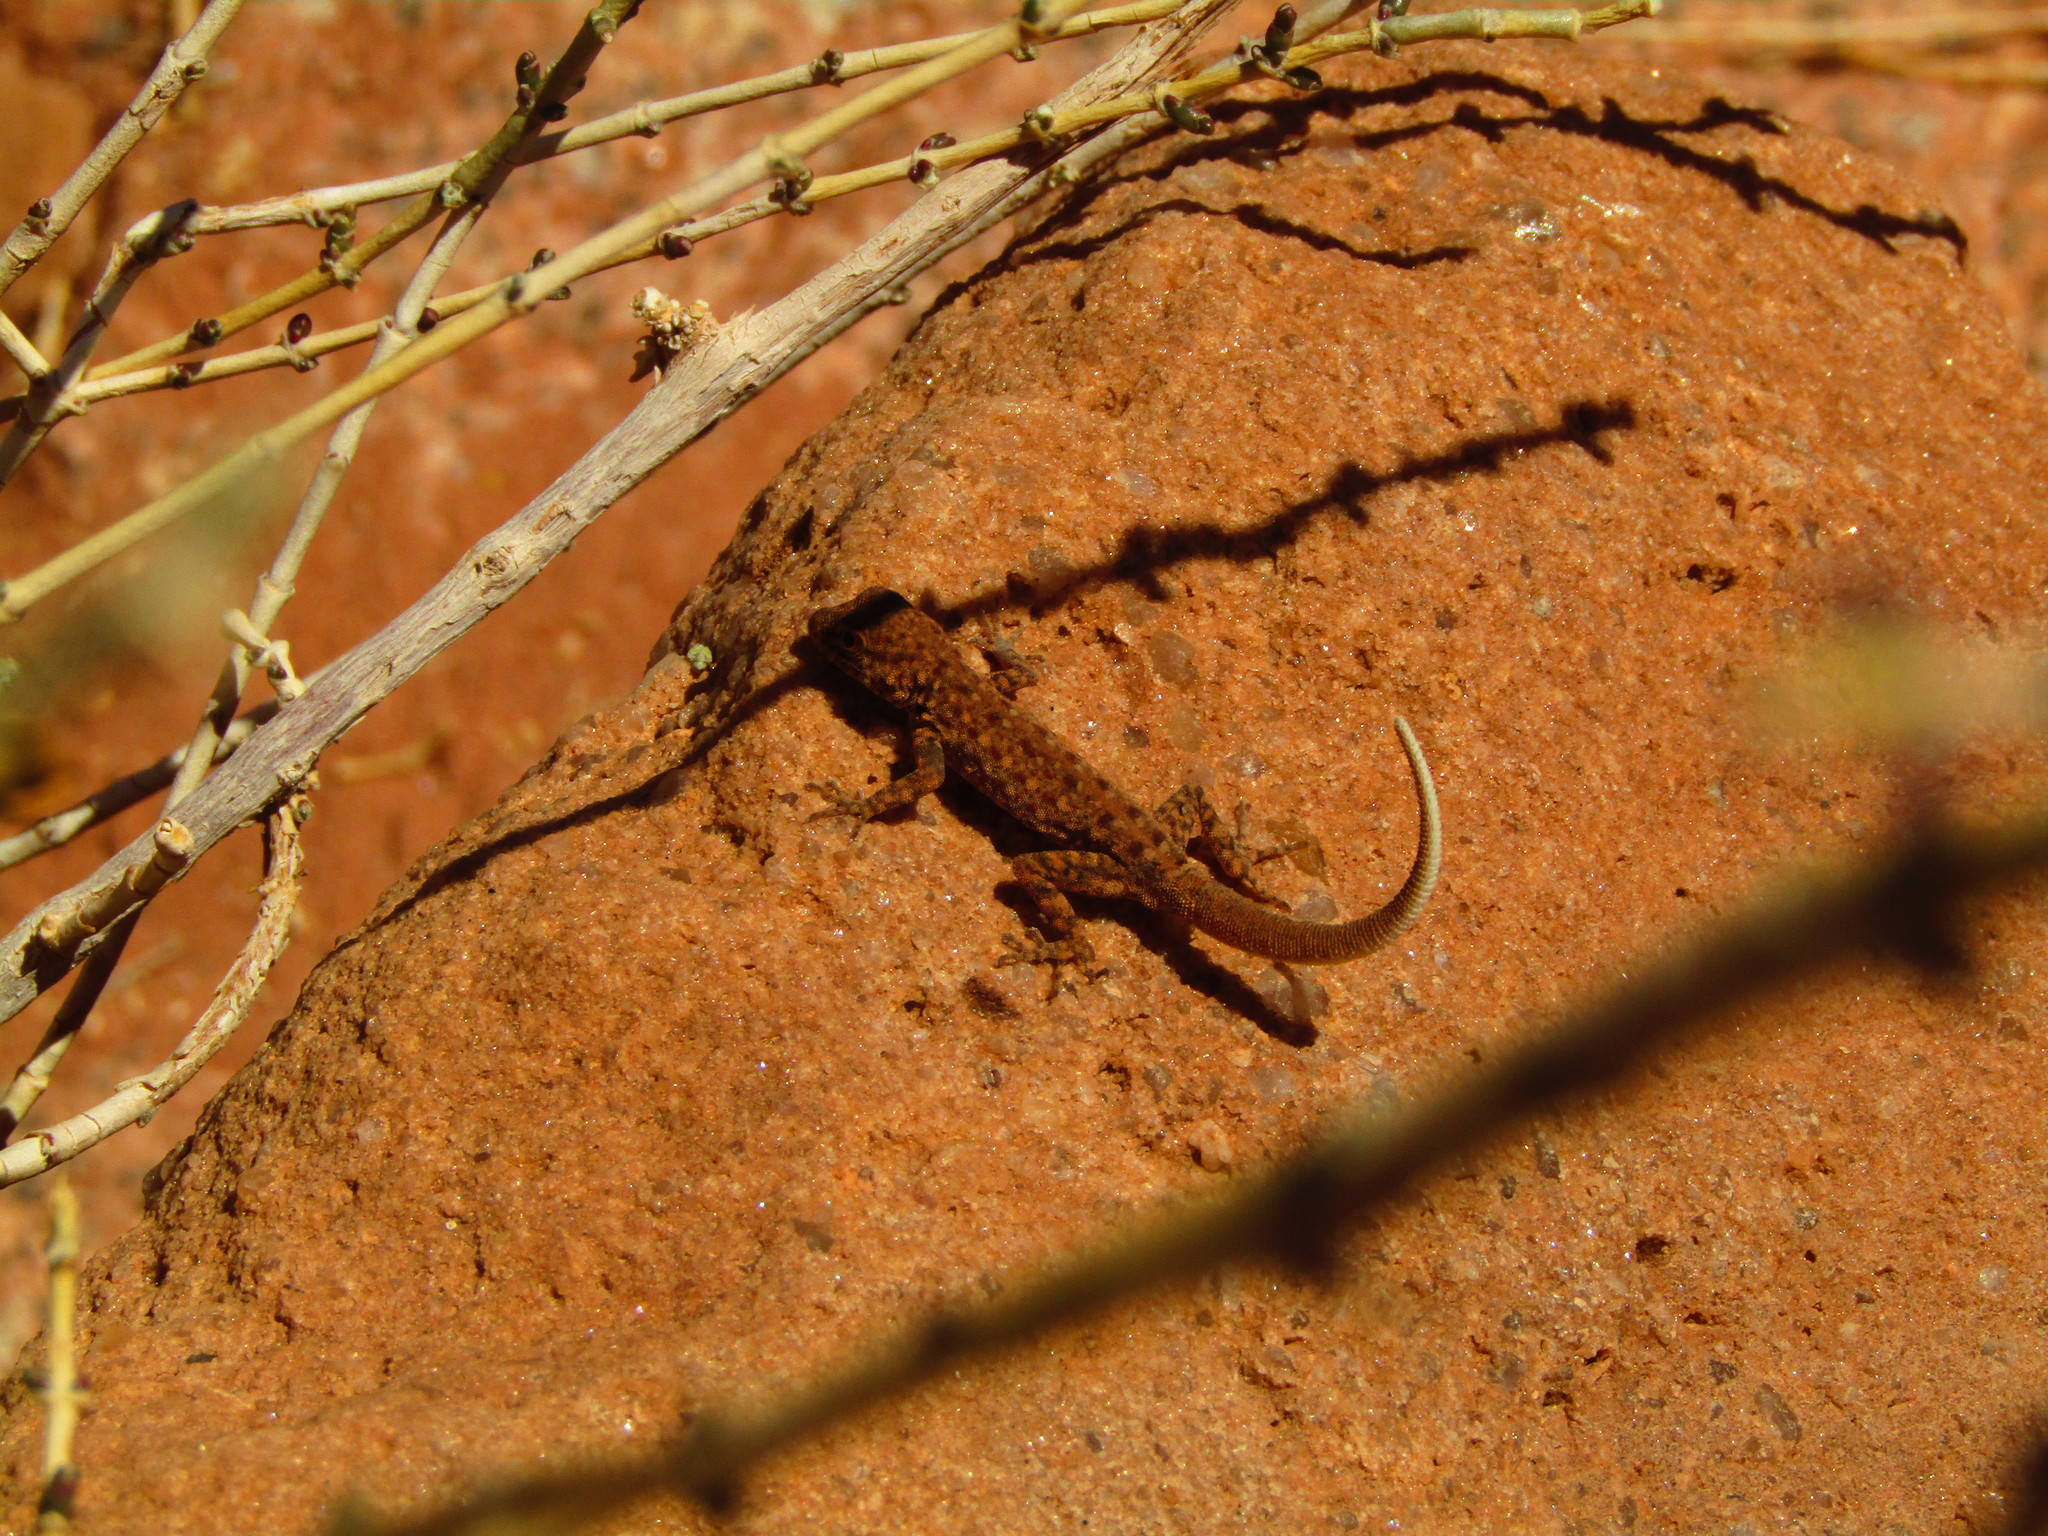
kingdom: Animalia
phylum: Chordata
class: Squamata
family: Sphaerodactylidae
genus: Pristurus
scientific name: Pristurus rupestris
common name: Blanford’s semaphore gecko
